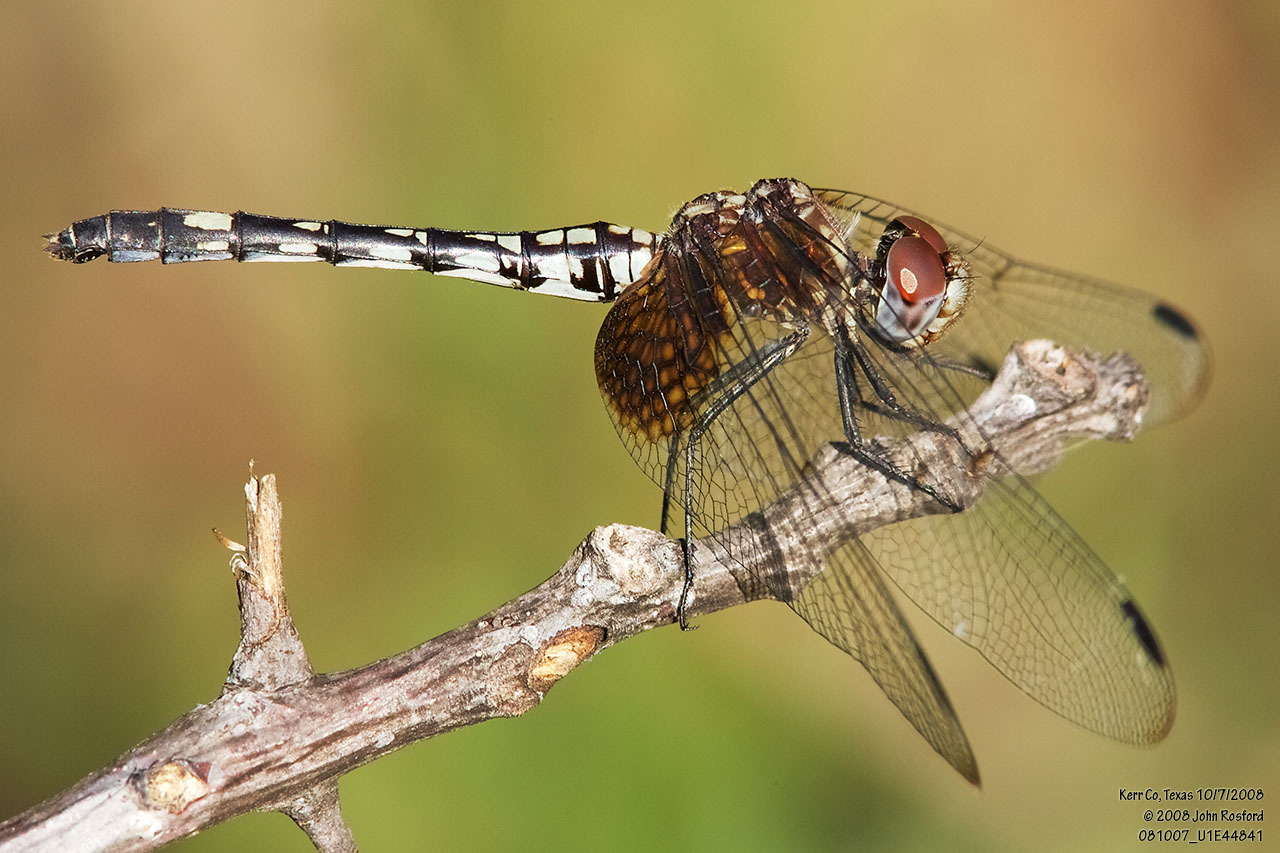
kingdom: Animalia
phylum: Arthropoda
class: Insecta
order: Odonata
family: Libellulidae
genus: Dythemis
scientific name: Dythemis fugax
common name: Checkered setwing
